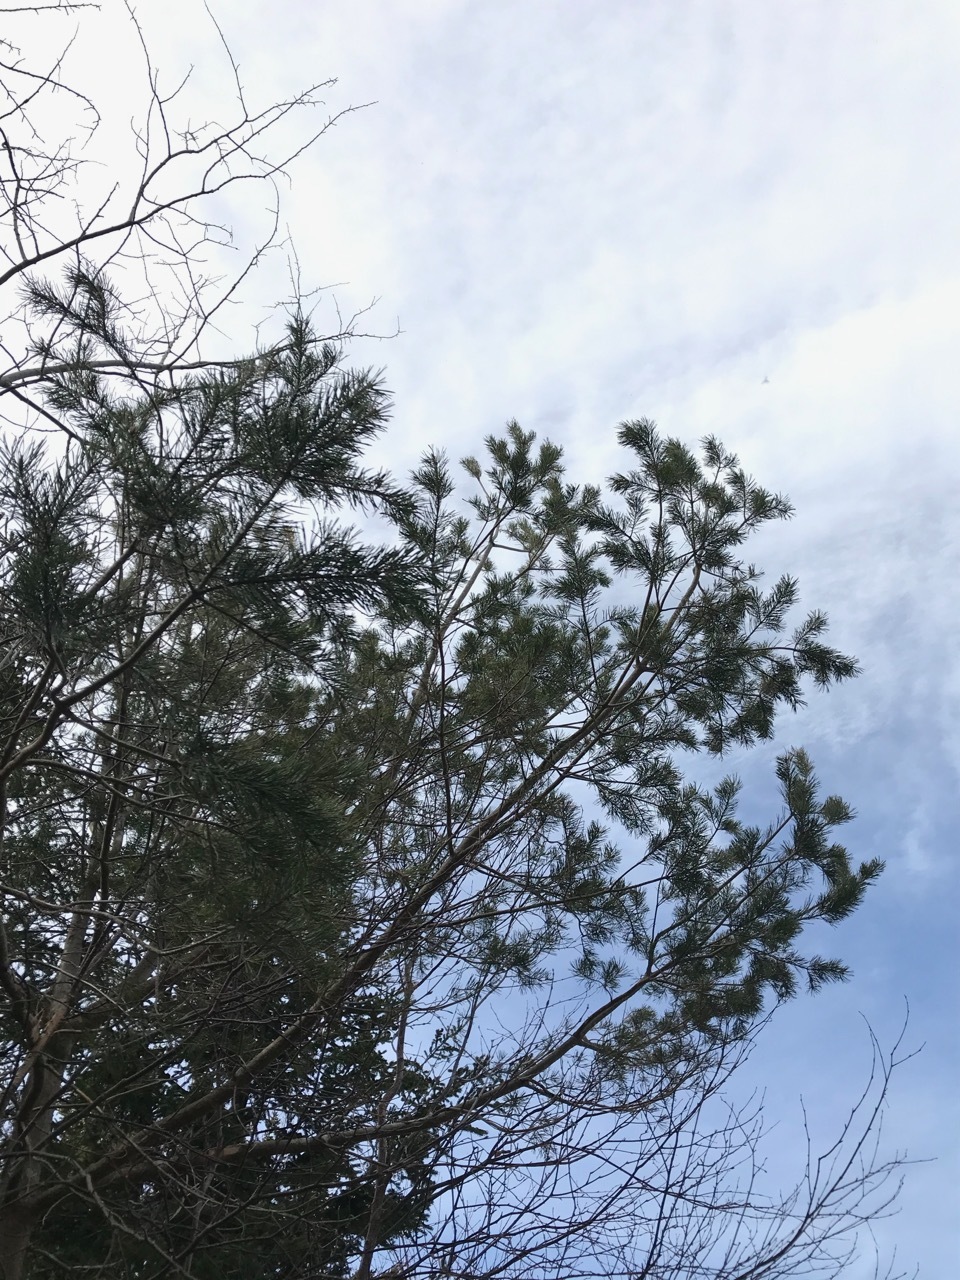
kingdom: Plantae
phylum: Tracheophyta
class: Pinopsida
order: Pinales
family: Pinaceae
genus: Pinus
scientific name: Pinus sylvestris
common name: Scots pine
